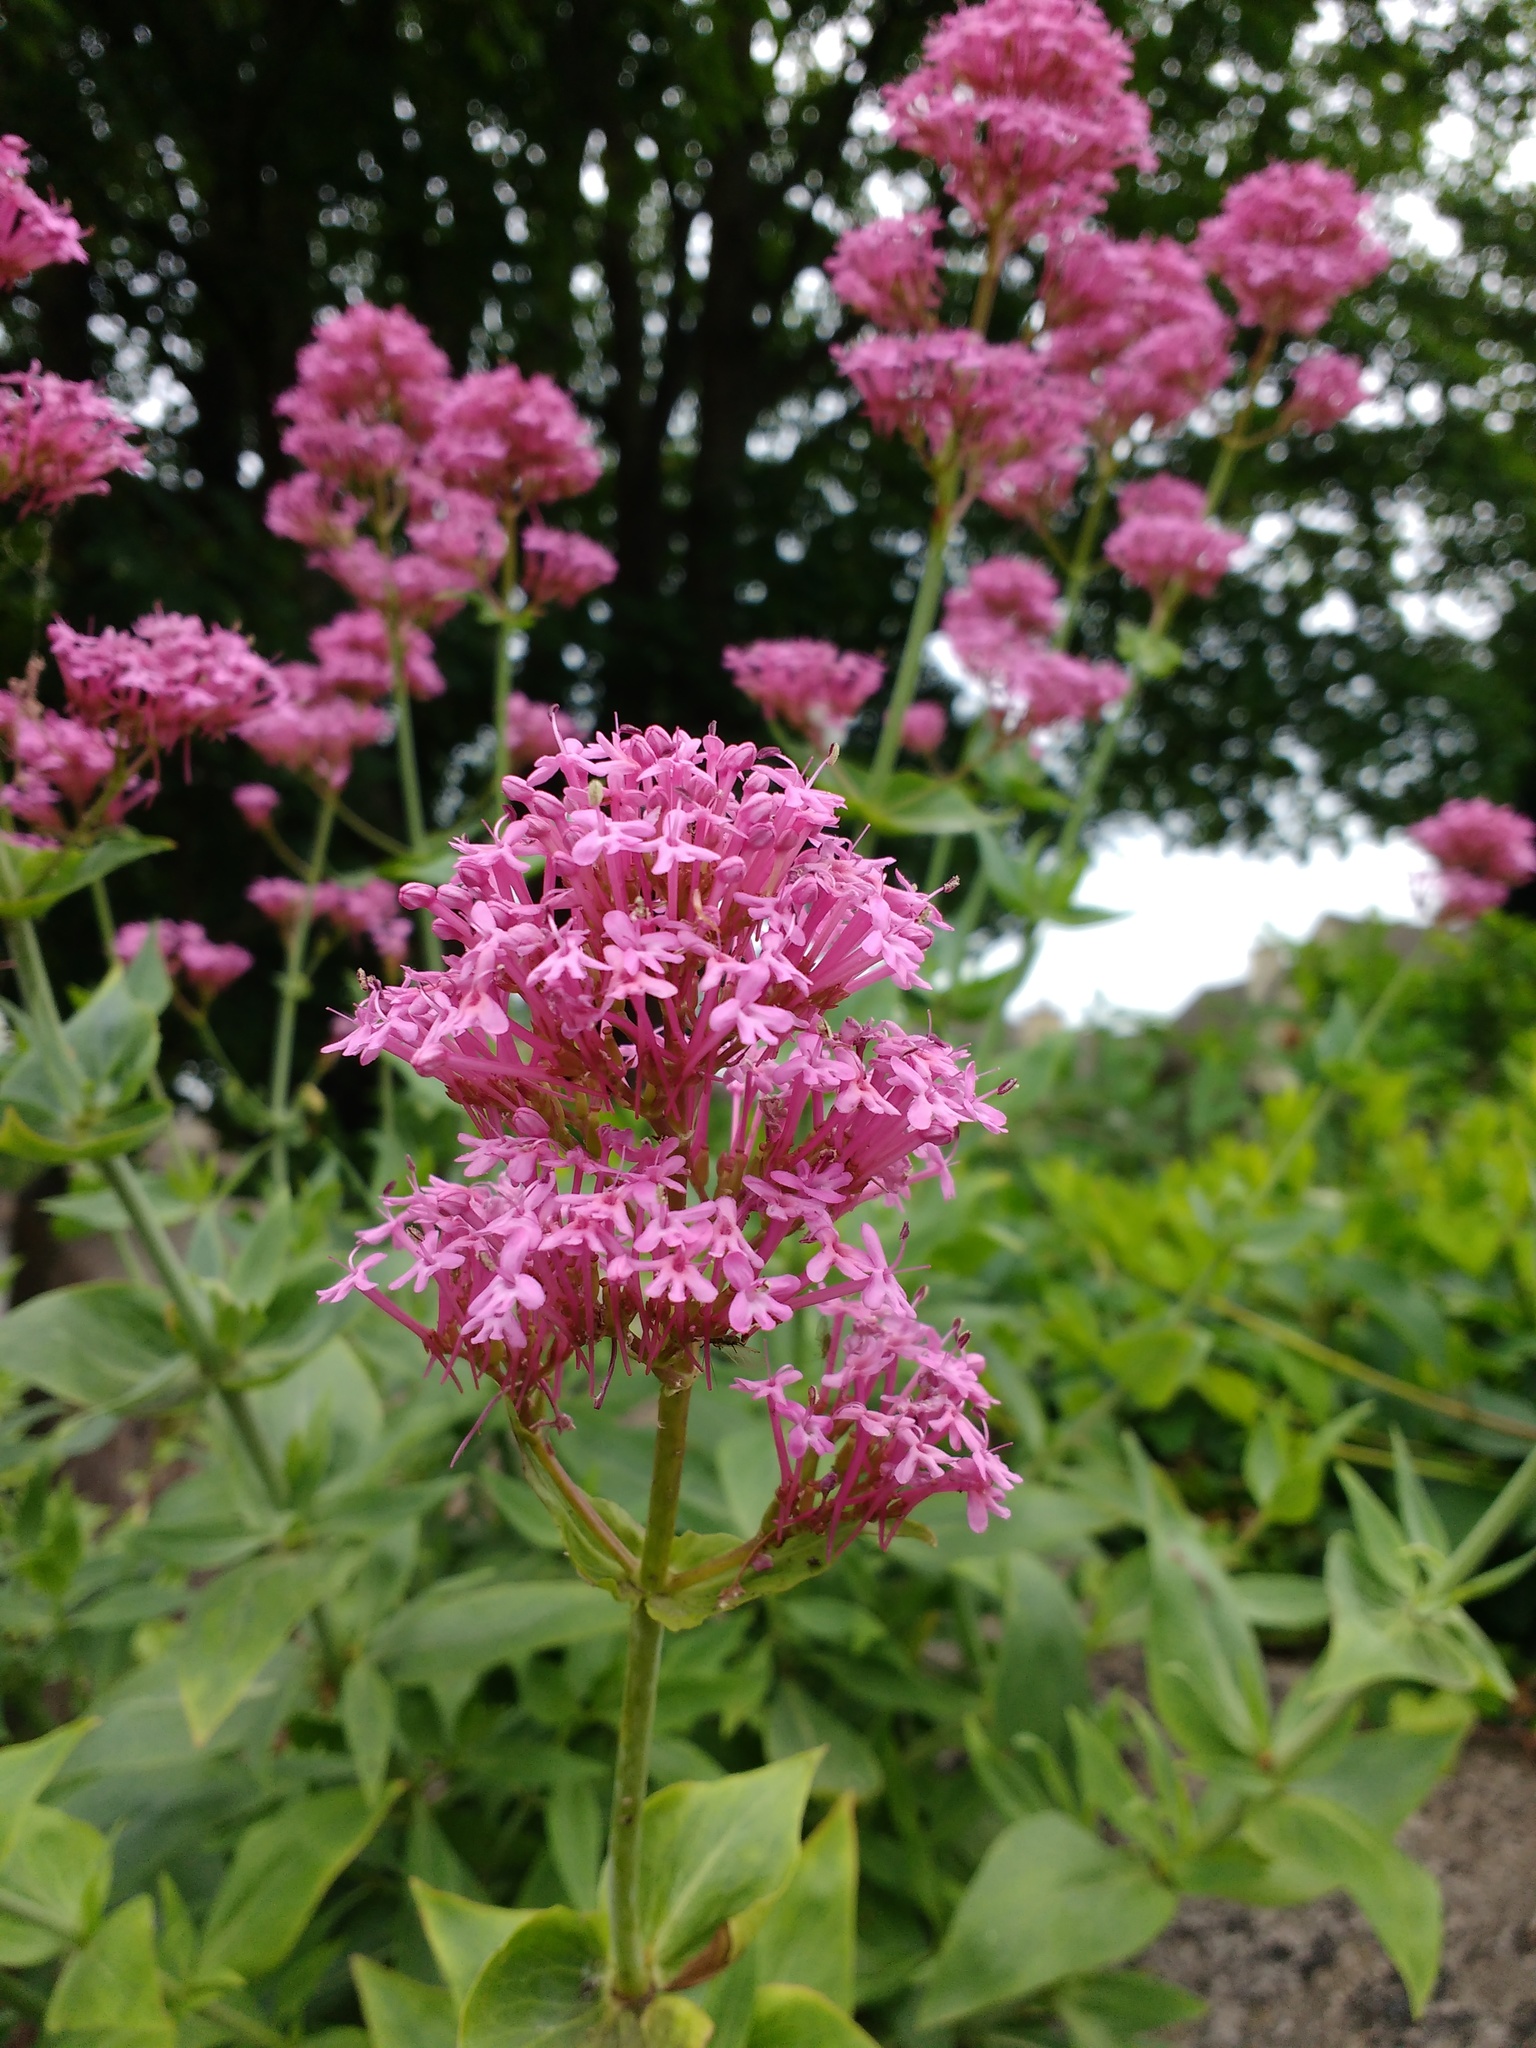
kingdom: Plantae
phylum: Tracheophyta
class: Magnoliopsida
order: Dipsacales
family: Caprifoliaceae
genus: Centranthus
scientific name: Centranthus ruber
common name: Red valerian
